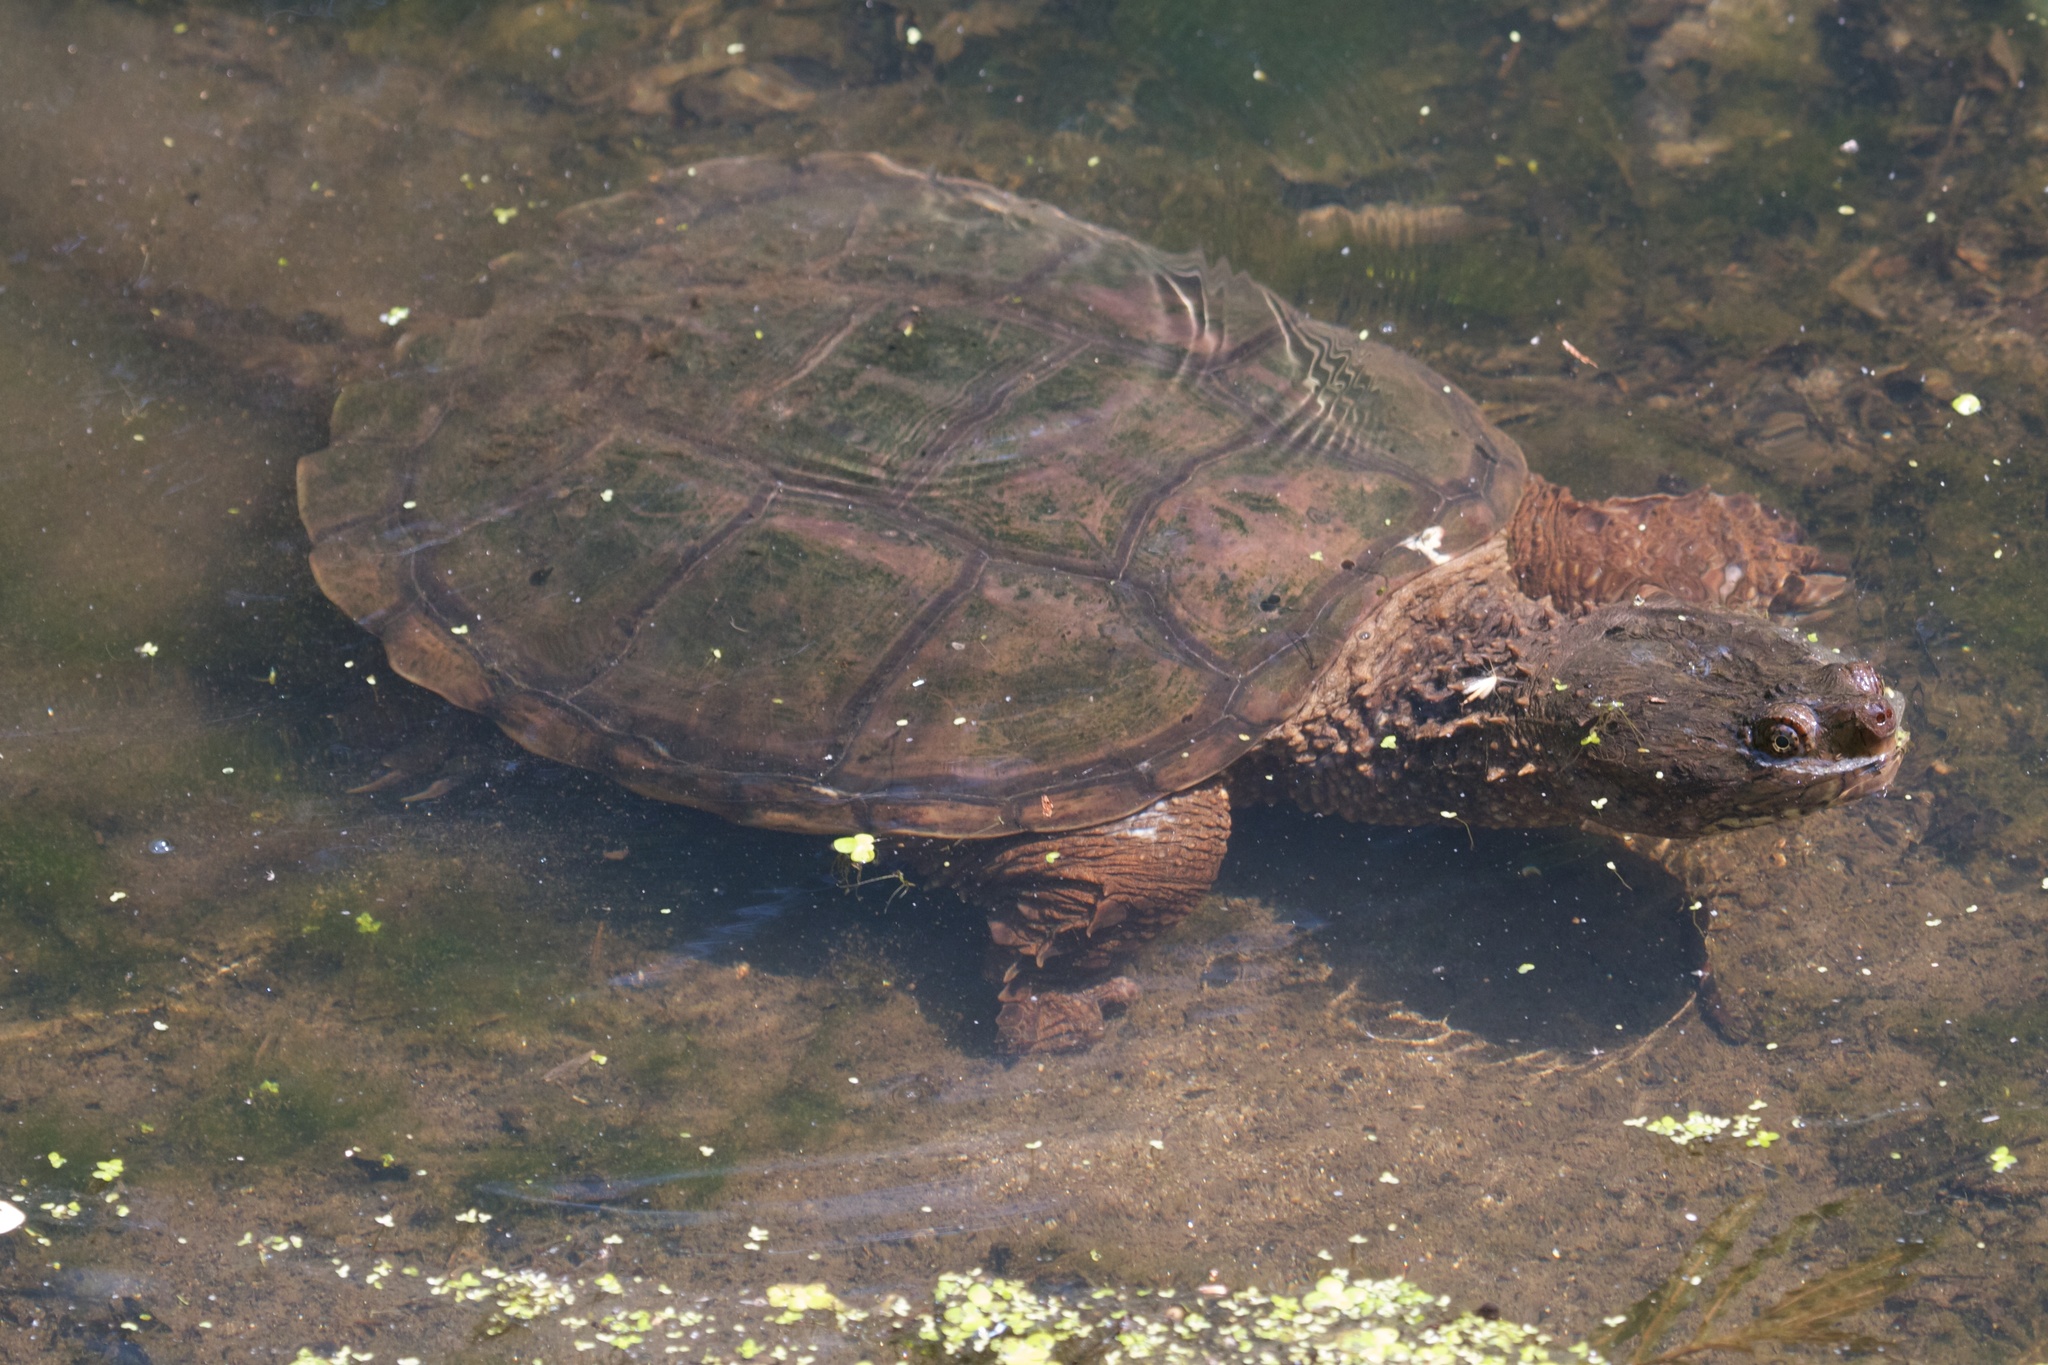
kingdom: Animalia
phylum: Chordata
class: Testudines
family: Chelydridae
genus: Chelydra
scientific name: Chelydra serpentina
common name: Common snapping turtle
